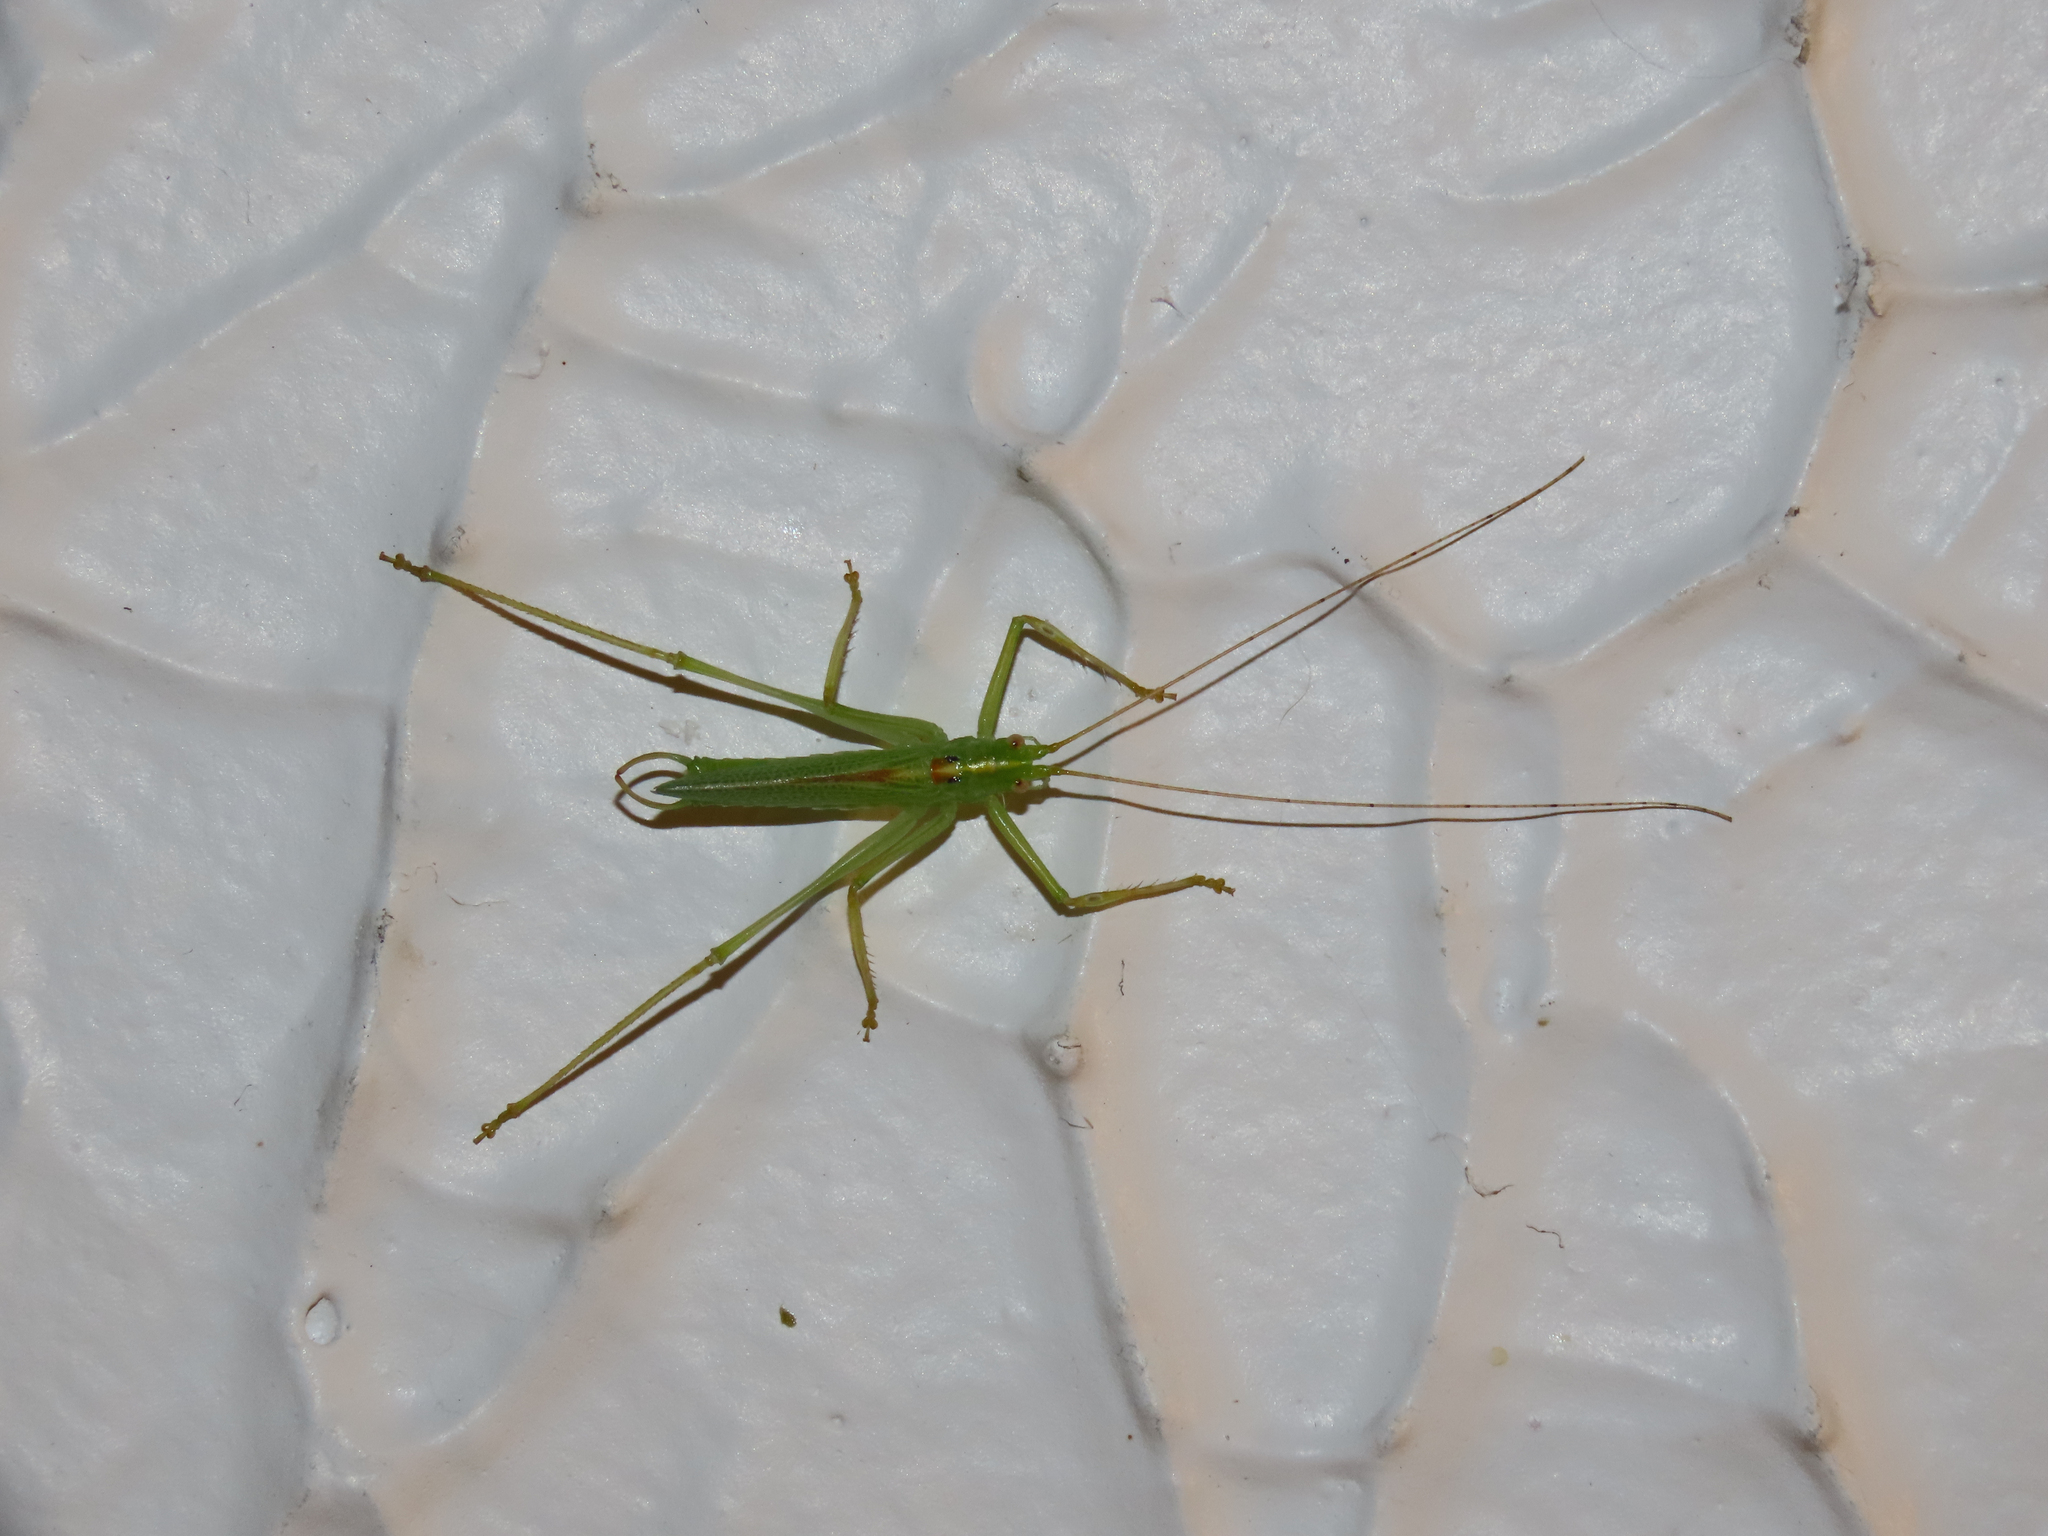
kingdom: Animalia
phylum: Arthropoda
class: Insecta
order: Orthoptera
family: Tettigoniidae
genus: Meconema
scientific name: Meconema thalassinum
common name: Oak bush-cricket
